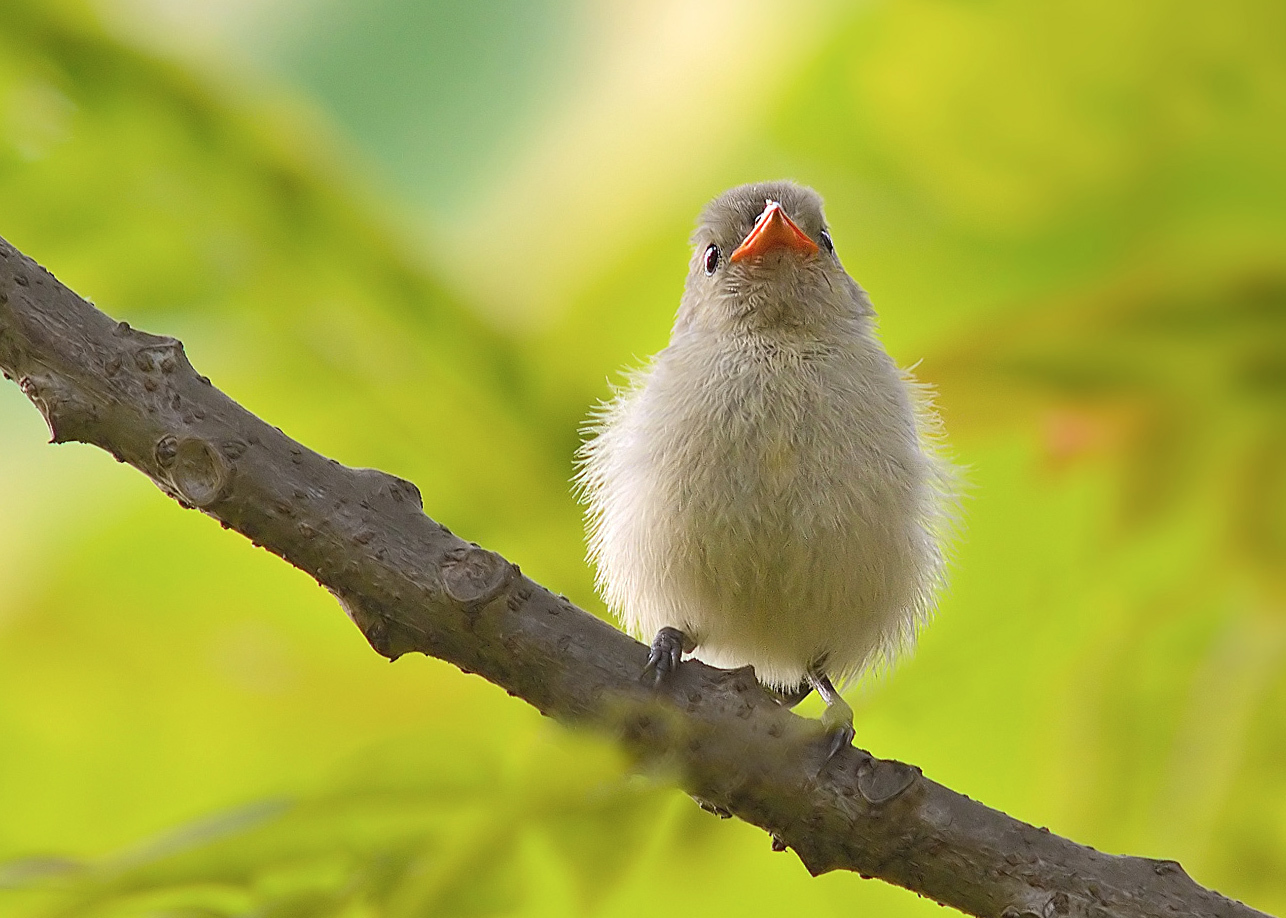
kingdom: Animalia
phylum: Chordata
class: Aves
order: Passeriformes
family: Dicaeidae
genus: Dicaeum
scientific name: Dicaeum erythrorhynchos
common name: Pale-billed flowerpecker
